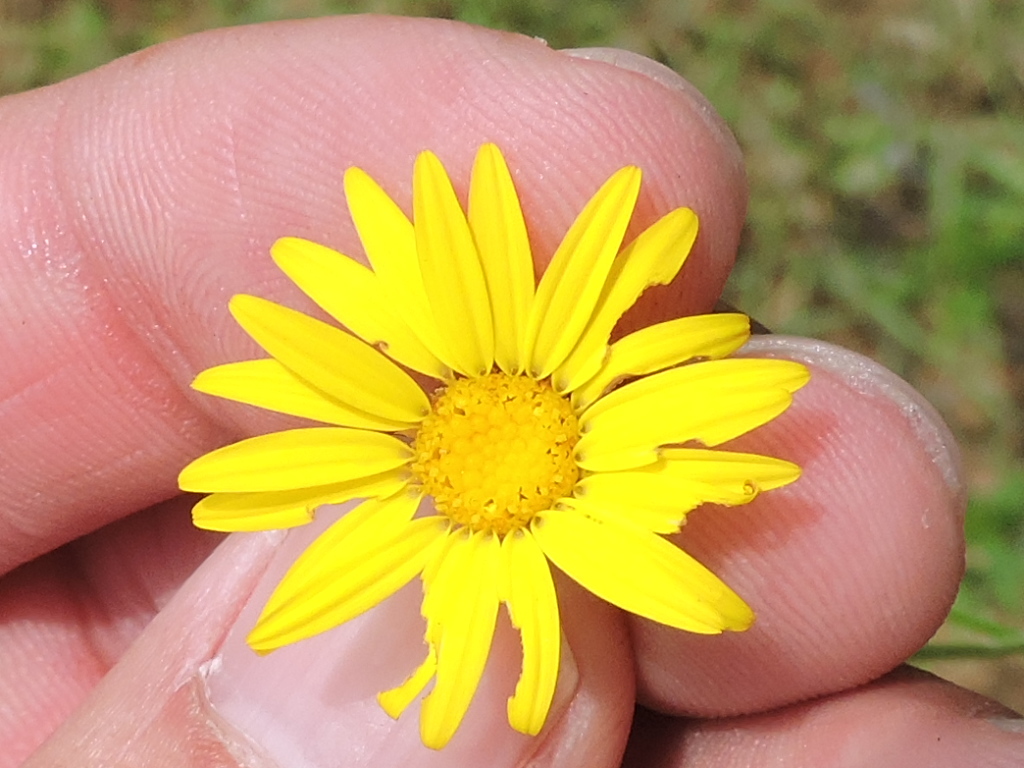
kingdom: Plantae
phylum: Tracheophyta
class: Magnoliopsida
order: Asterales
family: Asteraceae
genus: Croptilon
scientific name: Croptilon hookerianum
